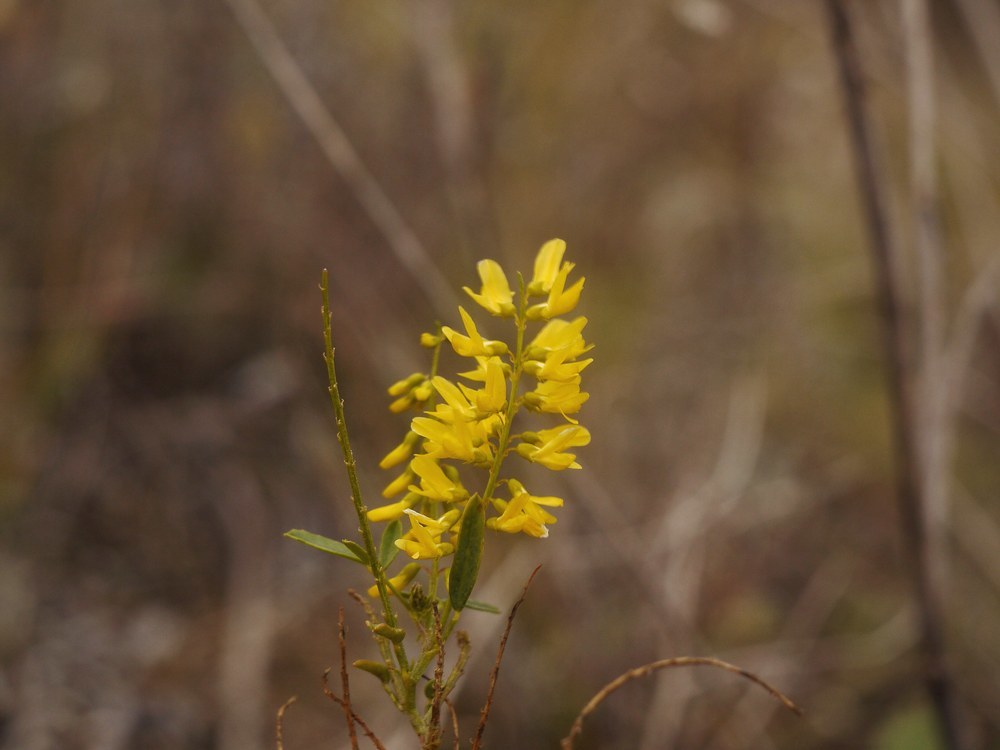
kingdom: Plantae
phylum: Tracheophyta
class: Magnoliopsida
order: Fabales
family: Fabaceae
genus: Melilotus
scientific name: Melilotus officinalis
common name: Sweetclover
